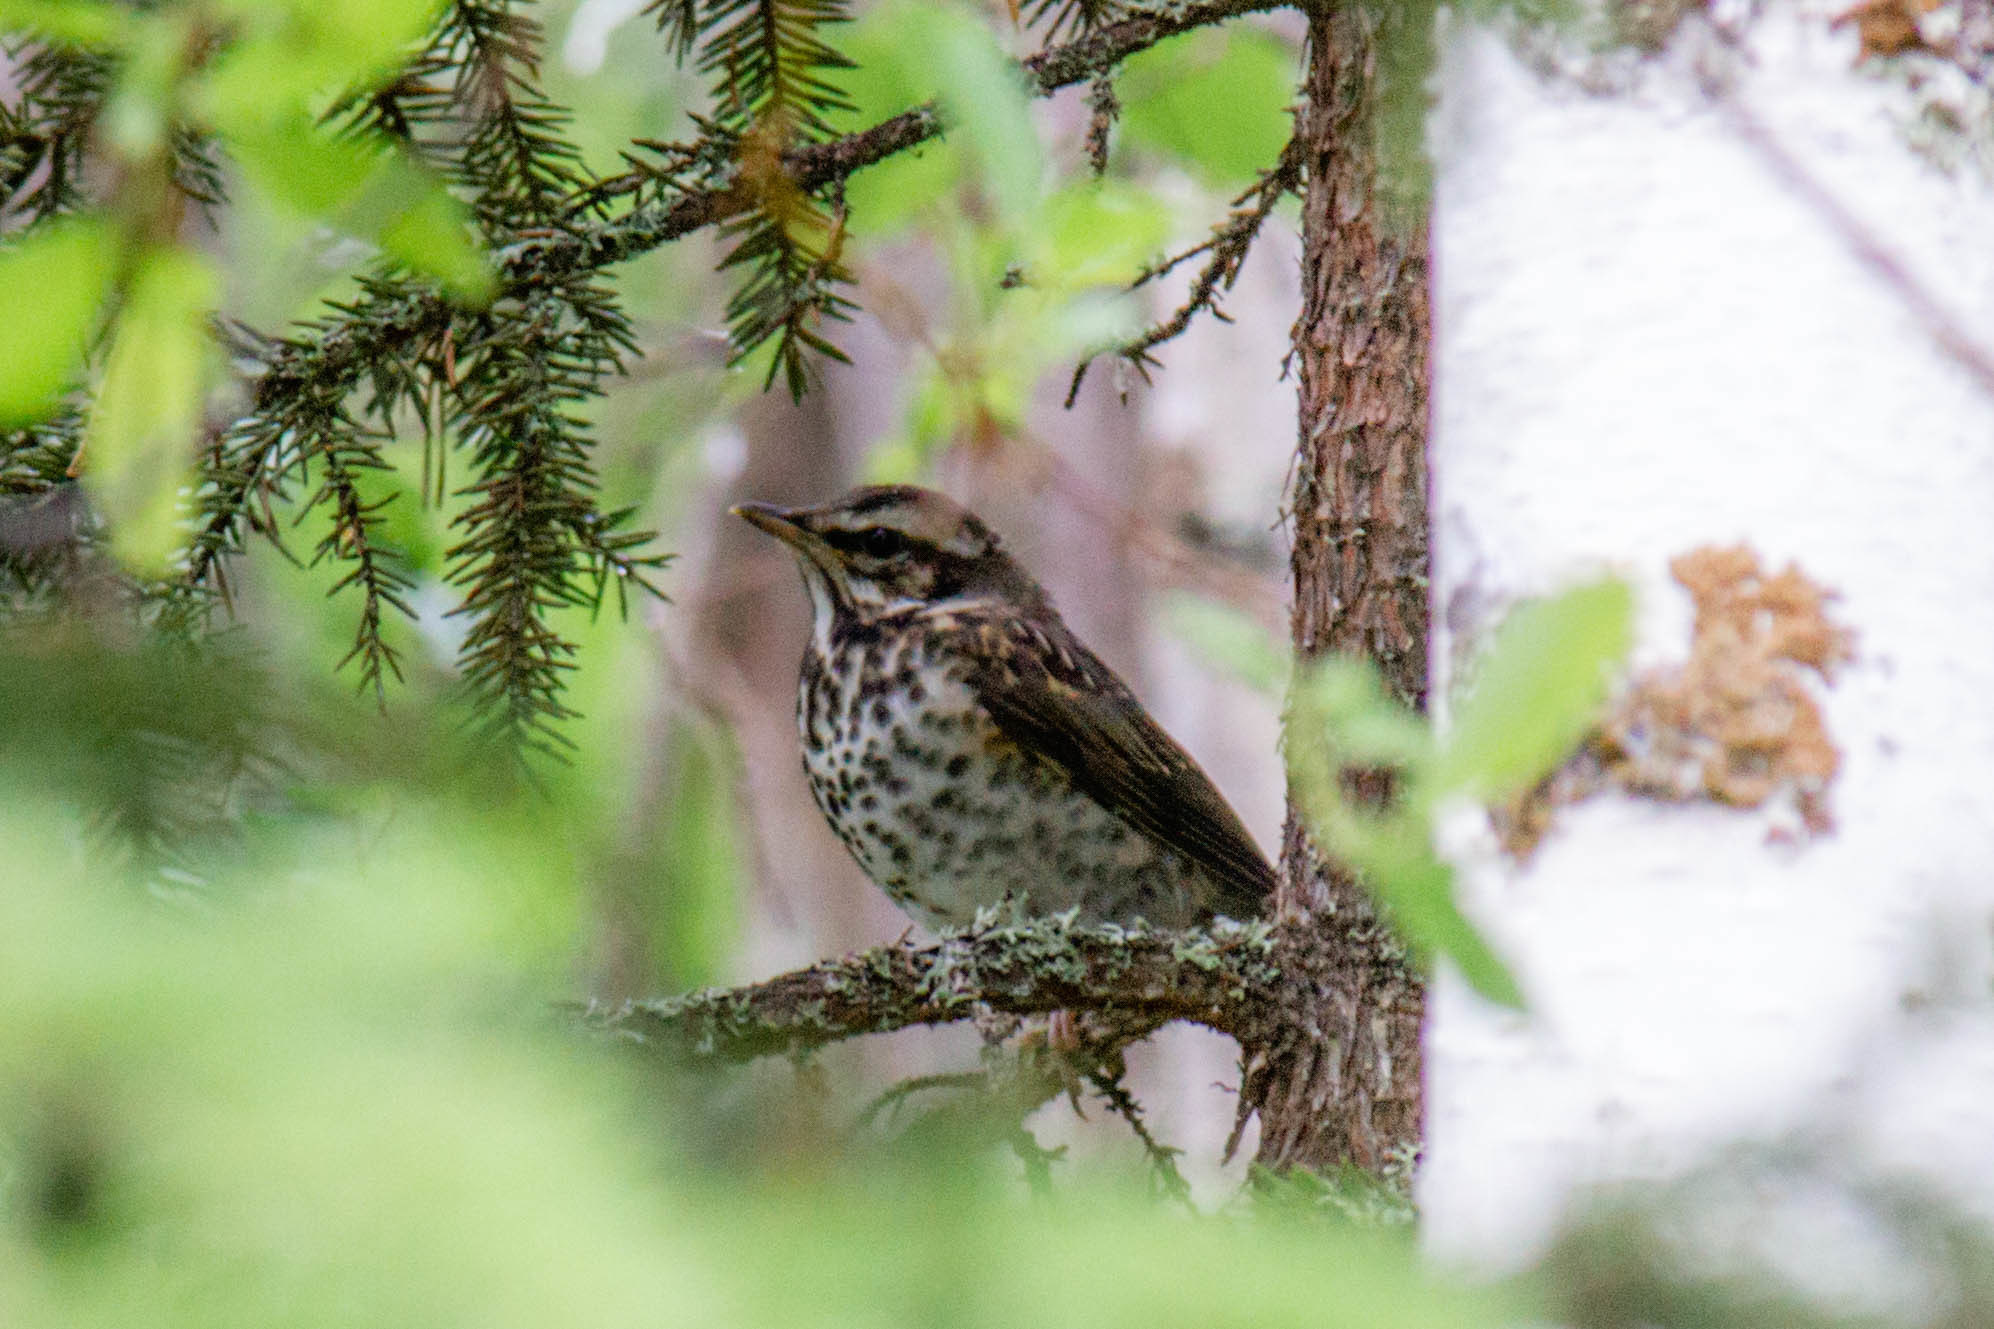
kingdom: Animalia
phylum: Chordata
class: Aves
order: Passeriformes
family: Turdidae
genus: Turdus
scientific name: Turdus iliacus
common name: Redwing
